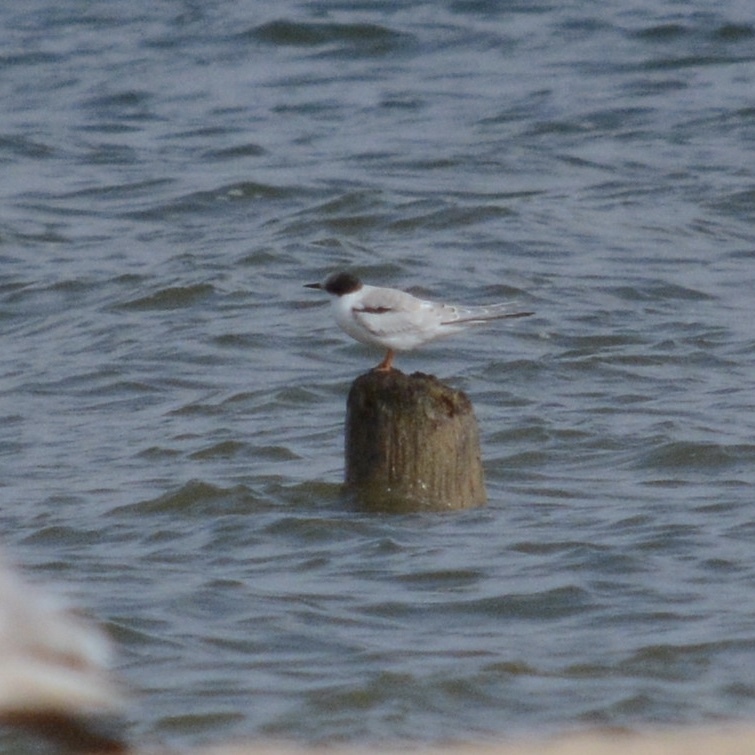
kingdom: Animalia
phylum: Chordata
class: Aves
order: Charadriiformes
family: Laridae
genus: Sterna
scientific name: Sterna hirundo
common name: Common tern
